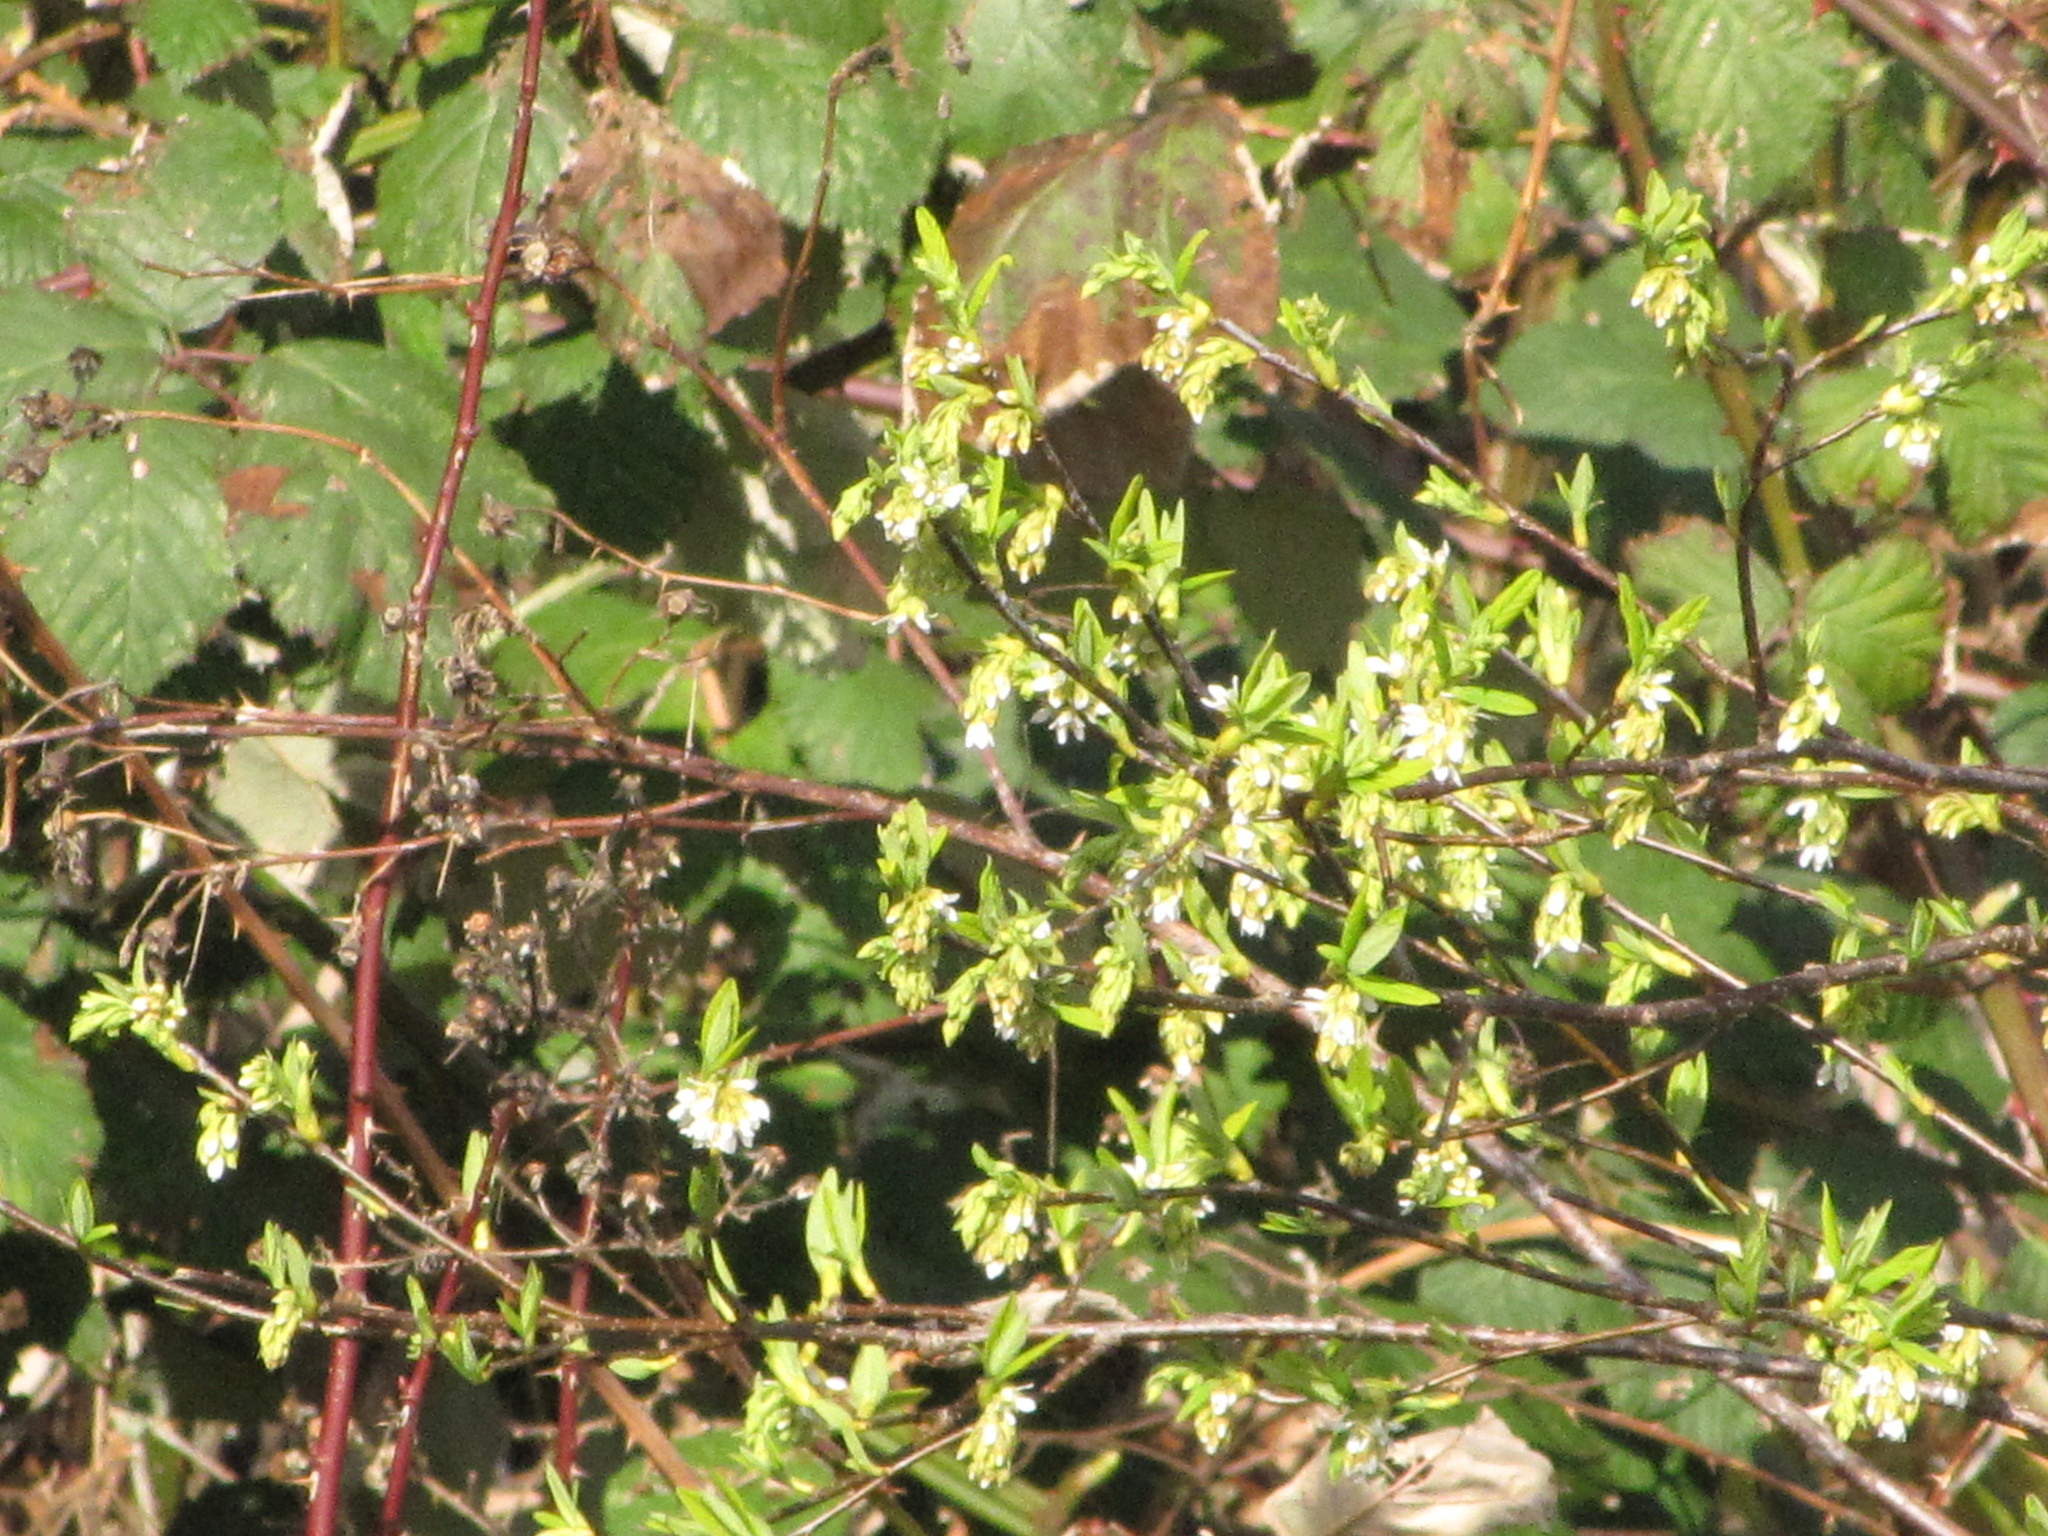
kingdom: Plantae
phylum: Tracheophyta
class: Magnoliopsida
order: Rosales
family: Rosaceae
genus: Oemleria
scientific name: Oemleria cerasiformis
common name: Osoberry
